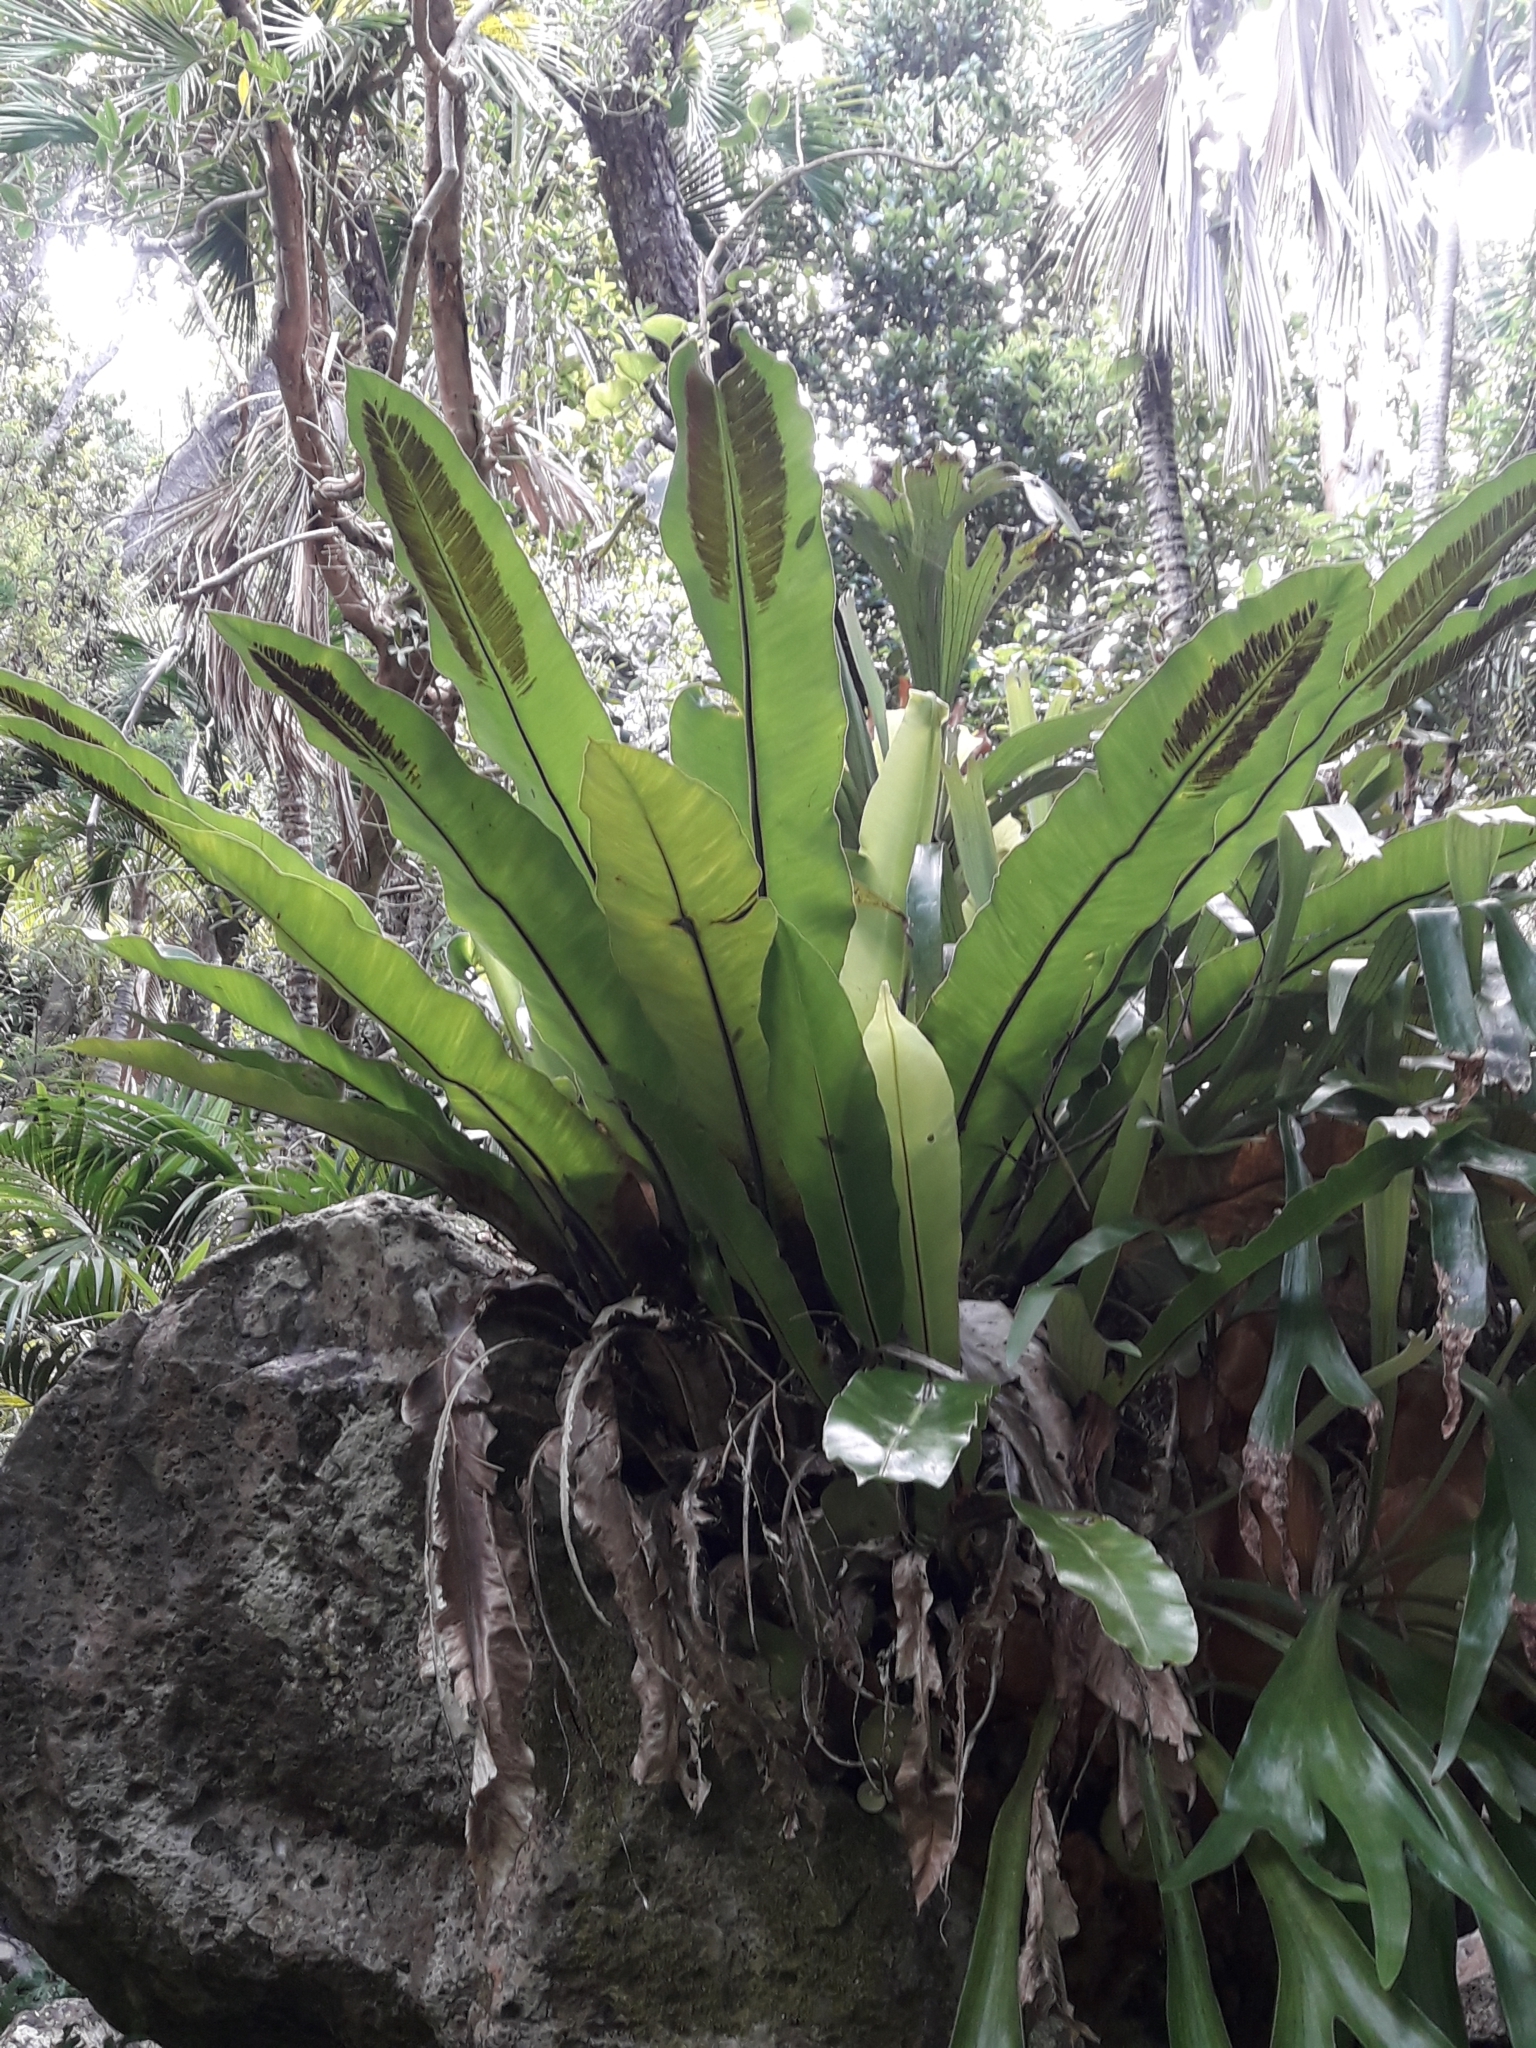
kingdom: Plantae
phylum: Tracheophyta
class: Polypodiopsida
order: Polypodiales
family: Aspleniaceae
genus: Asplenium
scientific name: Asplenium goudeyi
